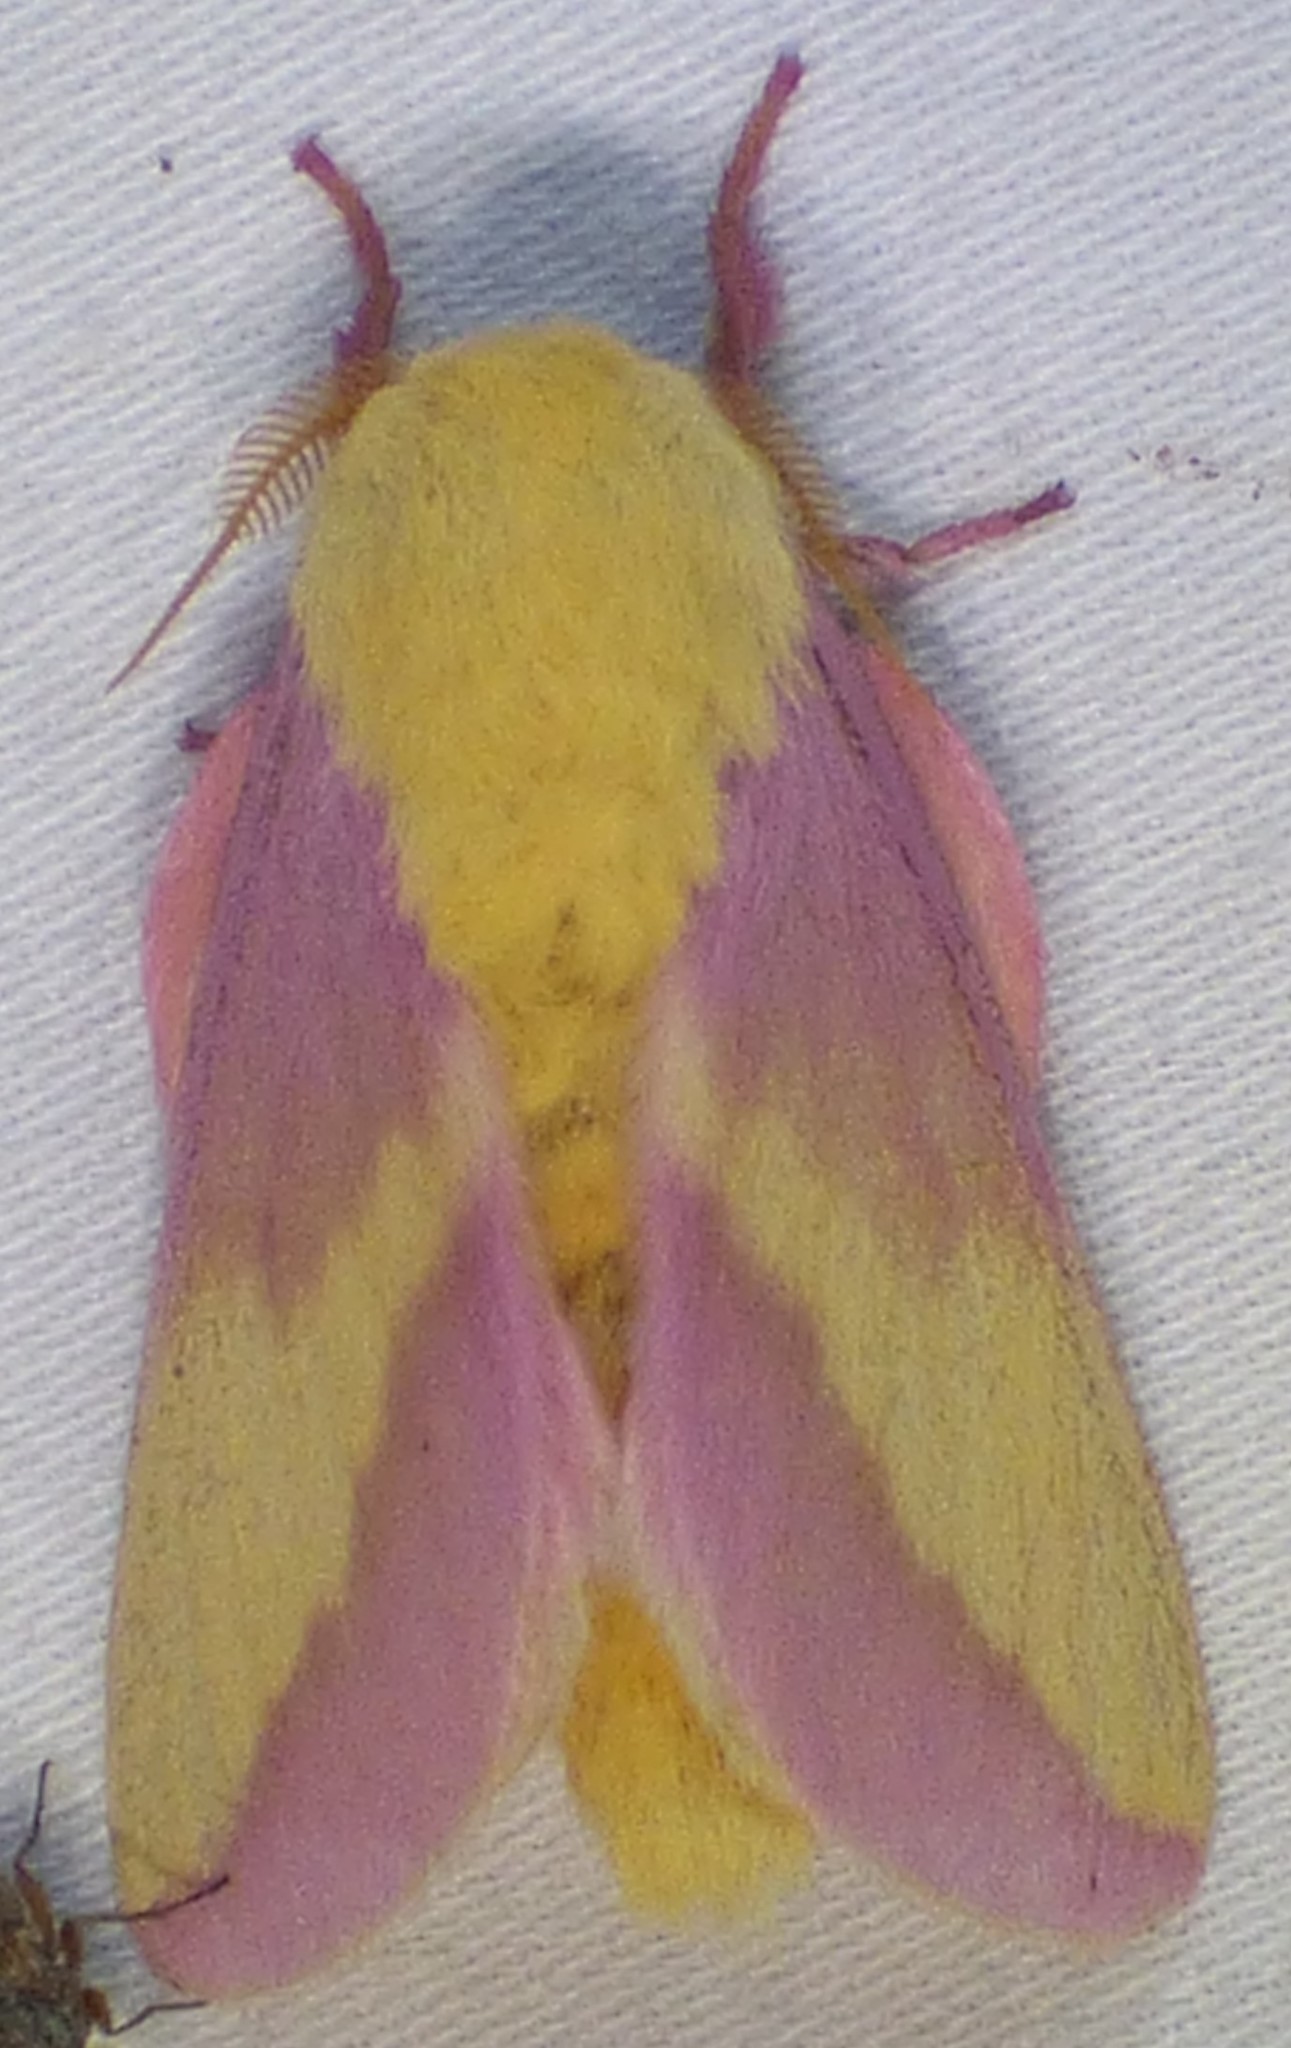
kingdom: Animalia
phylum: Arthropoda
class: Insecta
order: Lepidoptera
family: Saturniidae
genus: Dryocampa
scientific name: Dryocampa rubicunda
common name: Rosy maple moth
